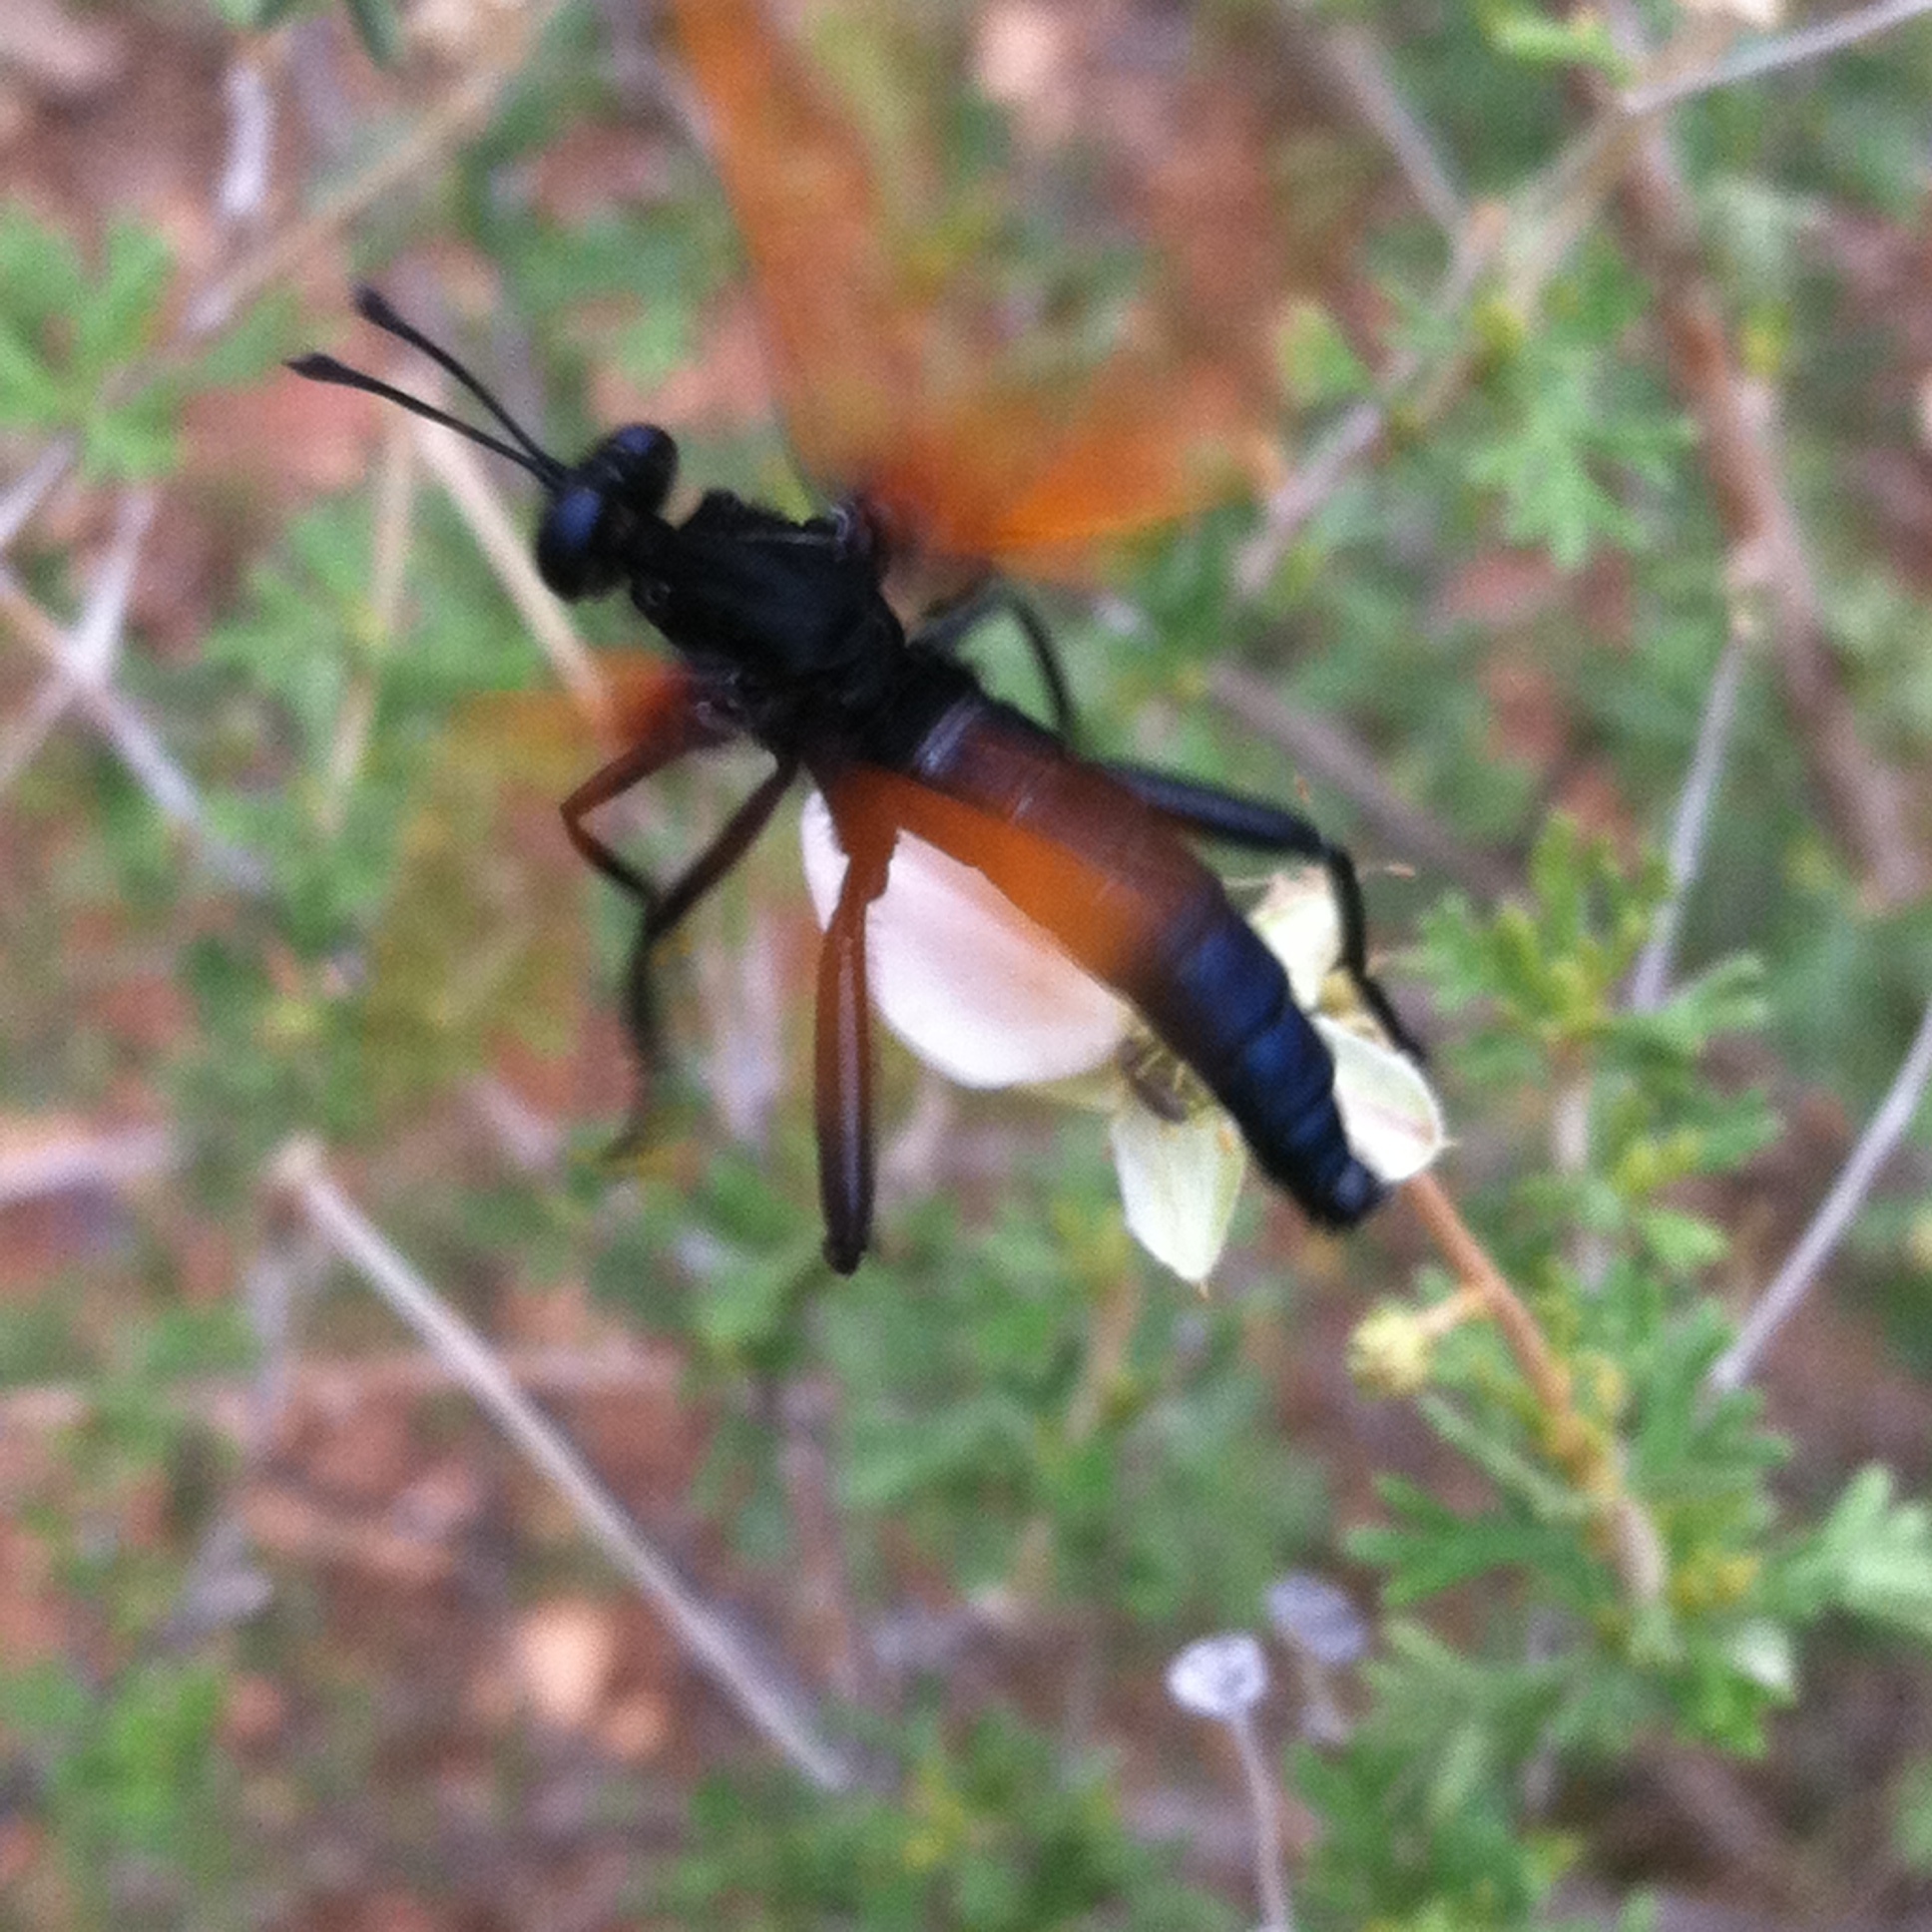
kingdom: Animalia
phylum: Arthropoda
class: Insecta
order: Diptera
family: Mydidae
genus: Mydas
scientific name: Mydas xanthopterus
